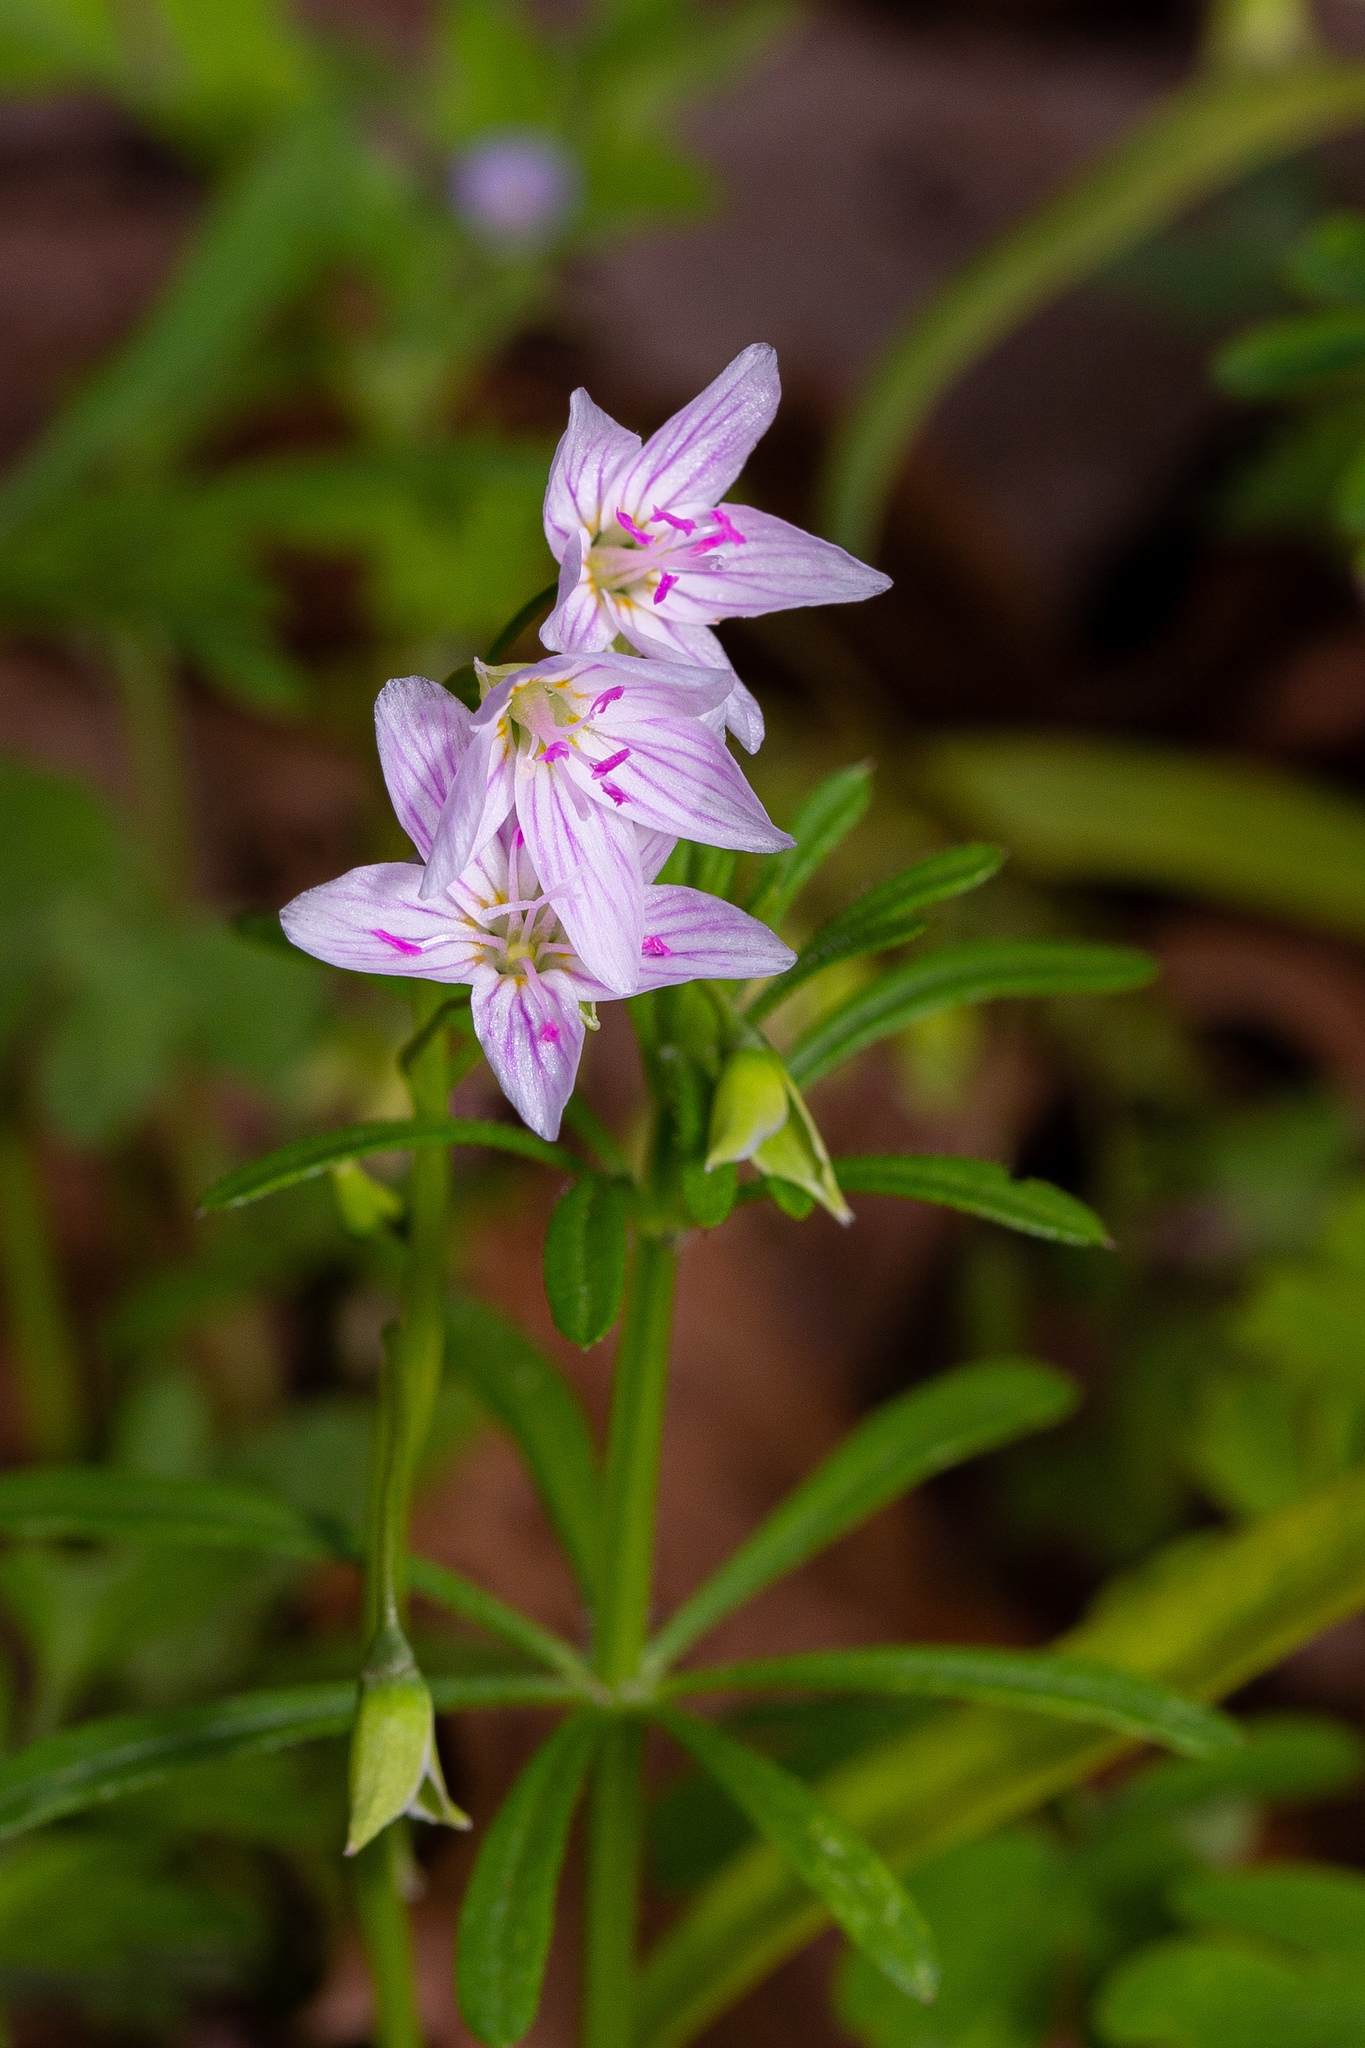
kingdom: Plantae
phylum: Tracheophyta
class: Magnoliopsida
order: Caryophyllales
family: Montiaceae
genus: Claytonia
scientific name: Claytonia virginica
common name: Virginia springbeauty
